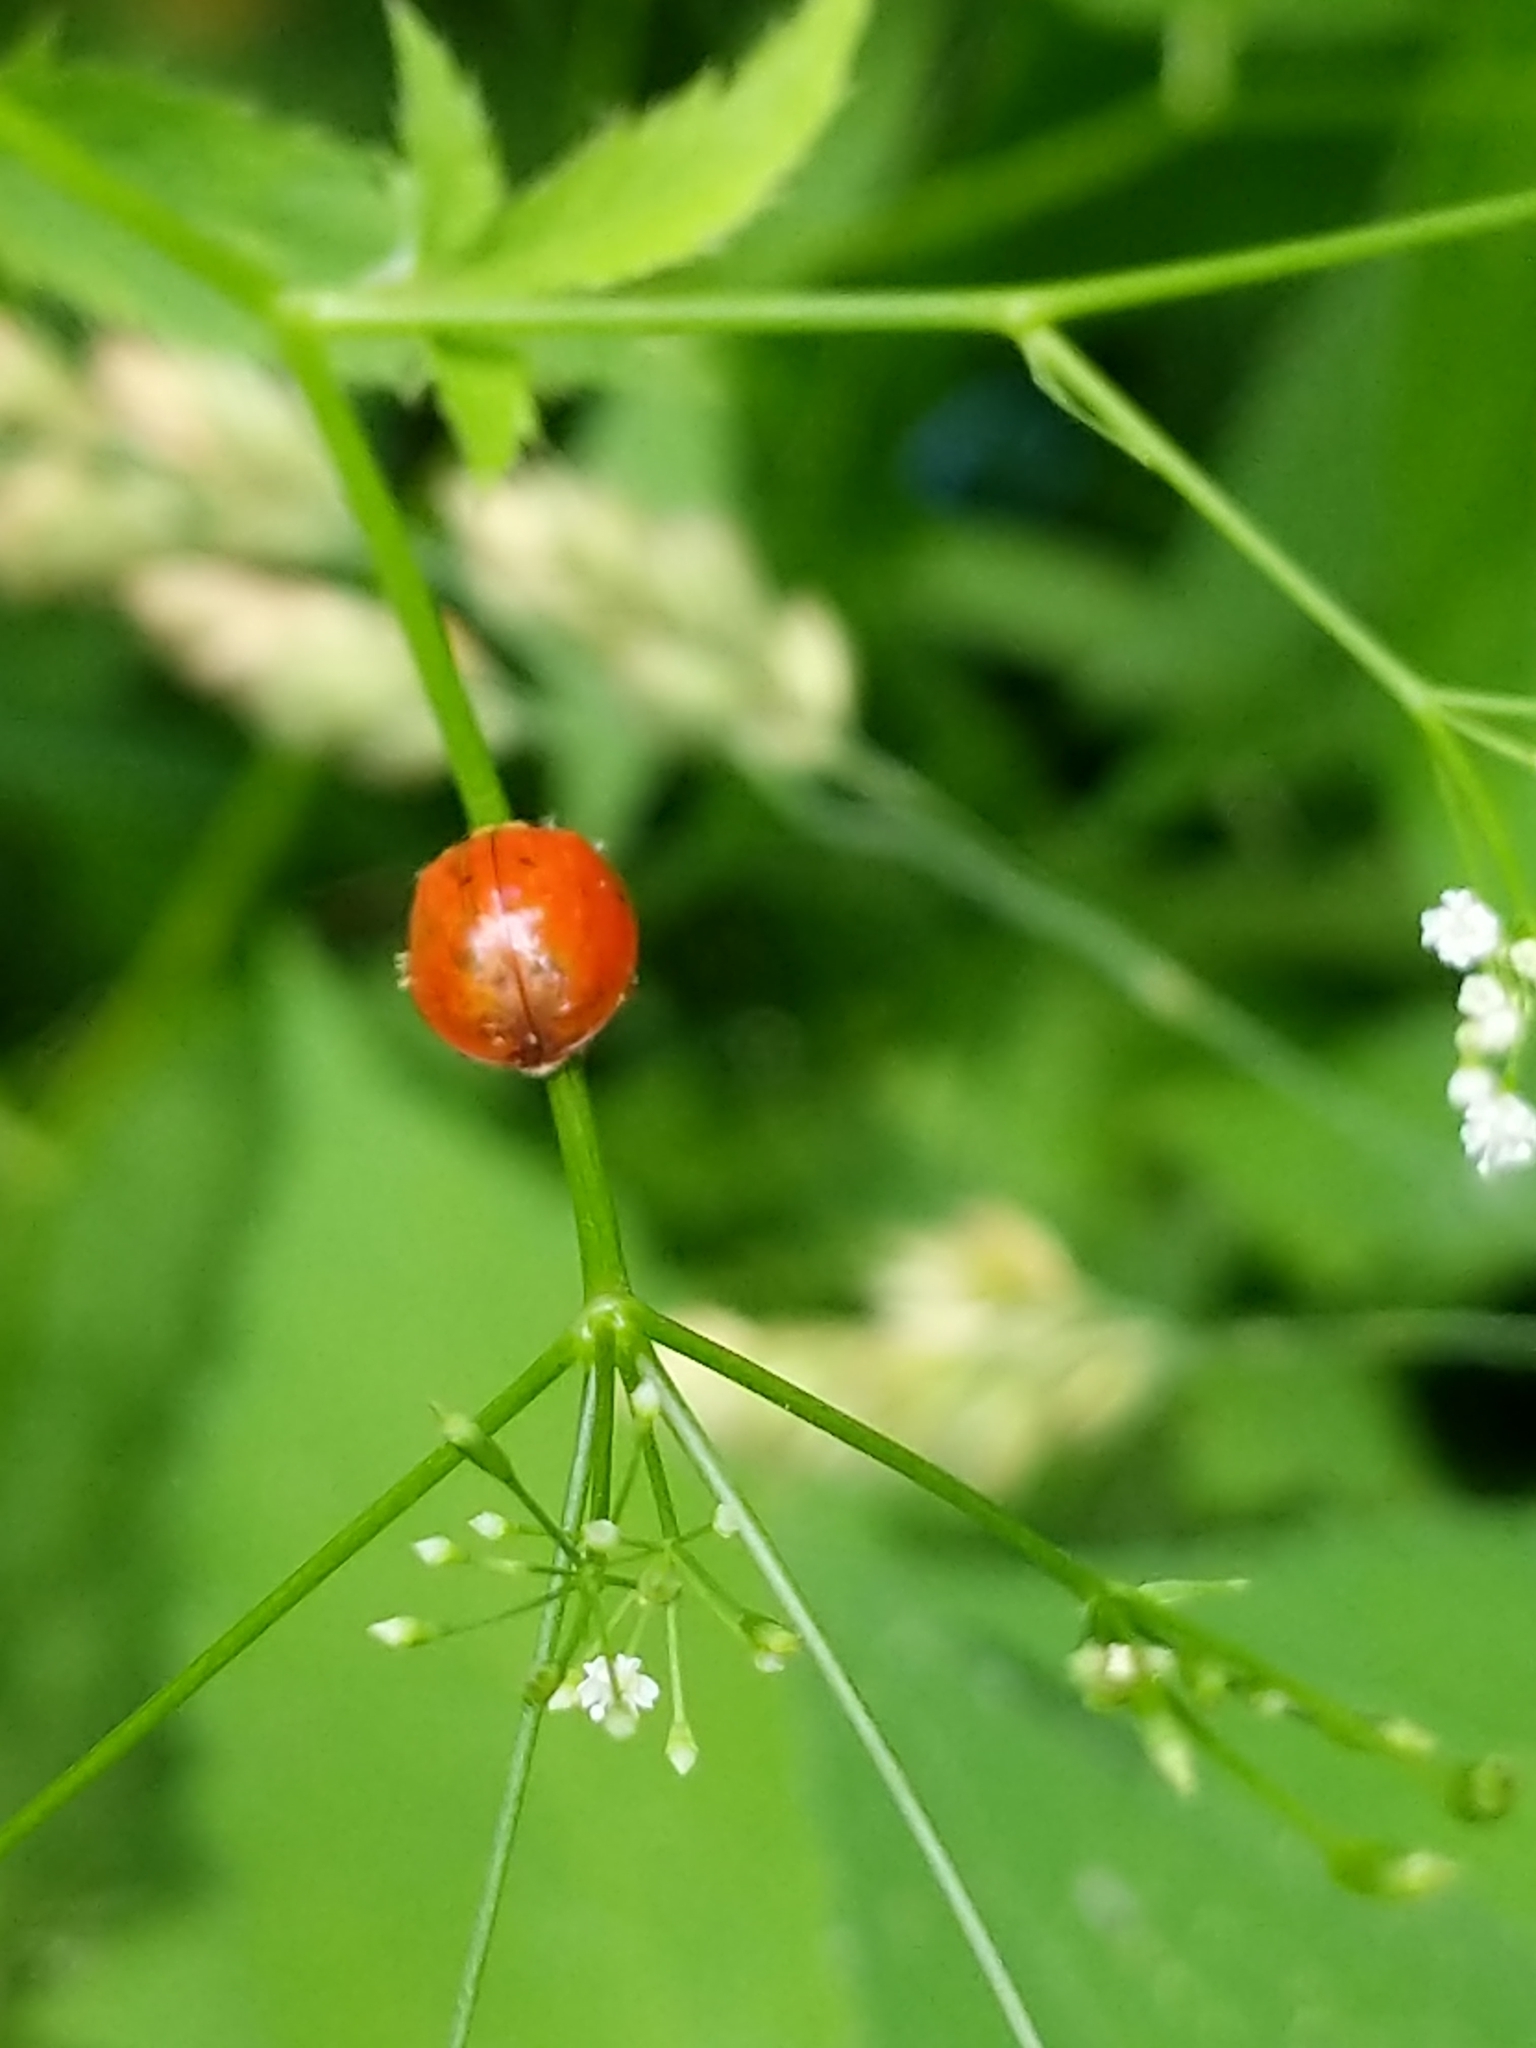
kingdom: Animalia
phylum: Arthropoda
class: Insecta
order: Coleoptera
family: Coccinellidae
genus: Harmonia
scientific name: Harmonia axyridis
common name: Harlequin ladybird
